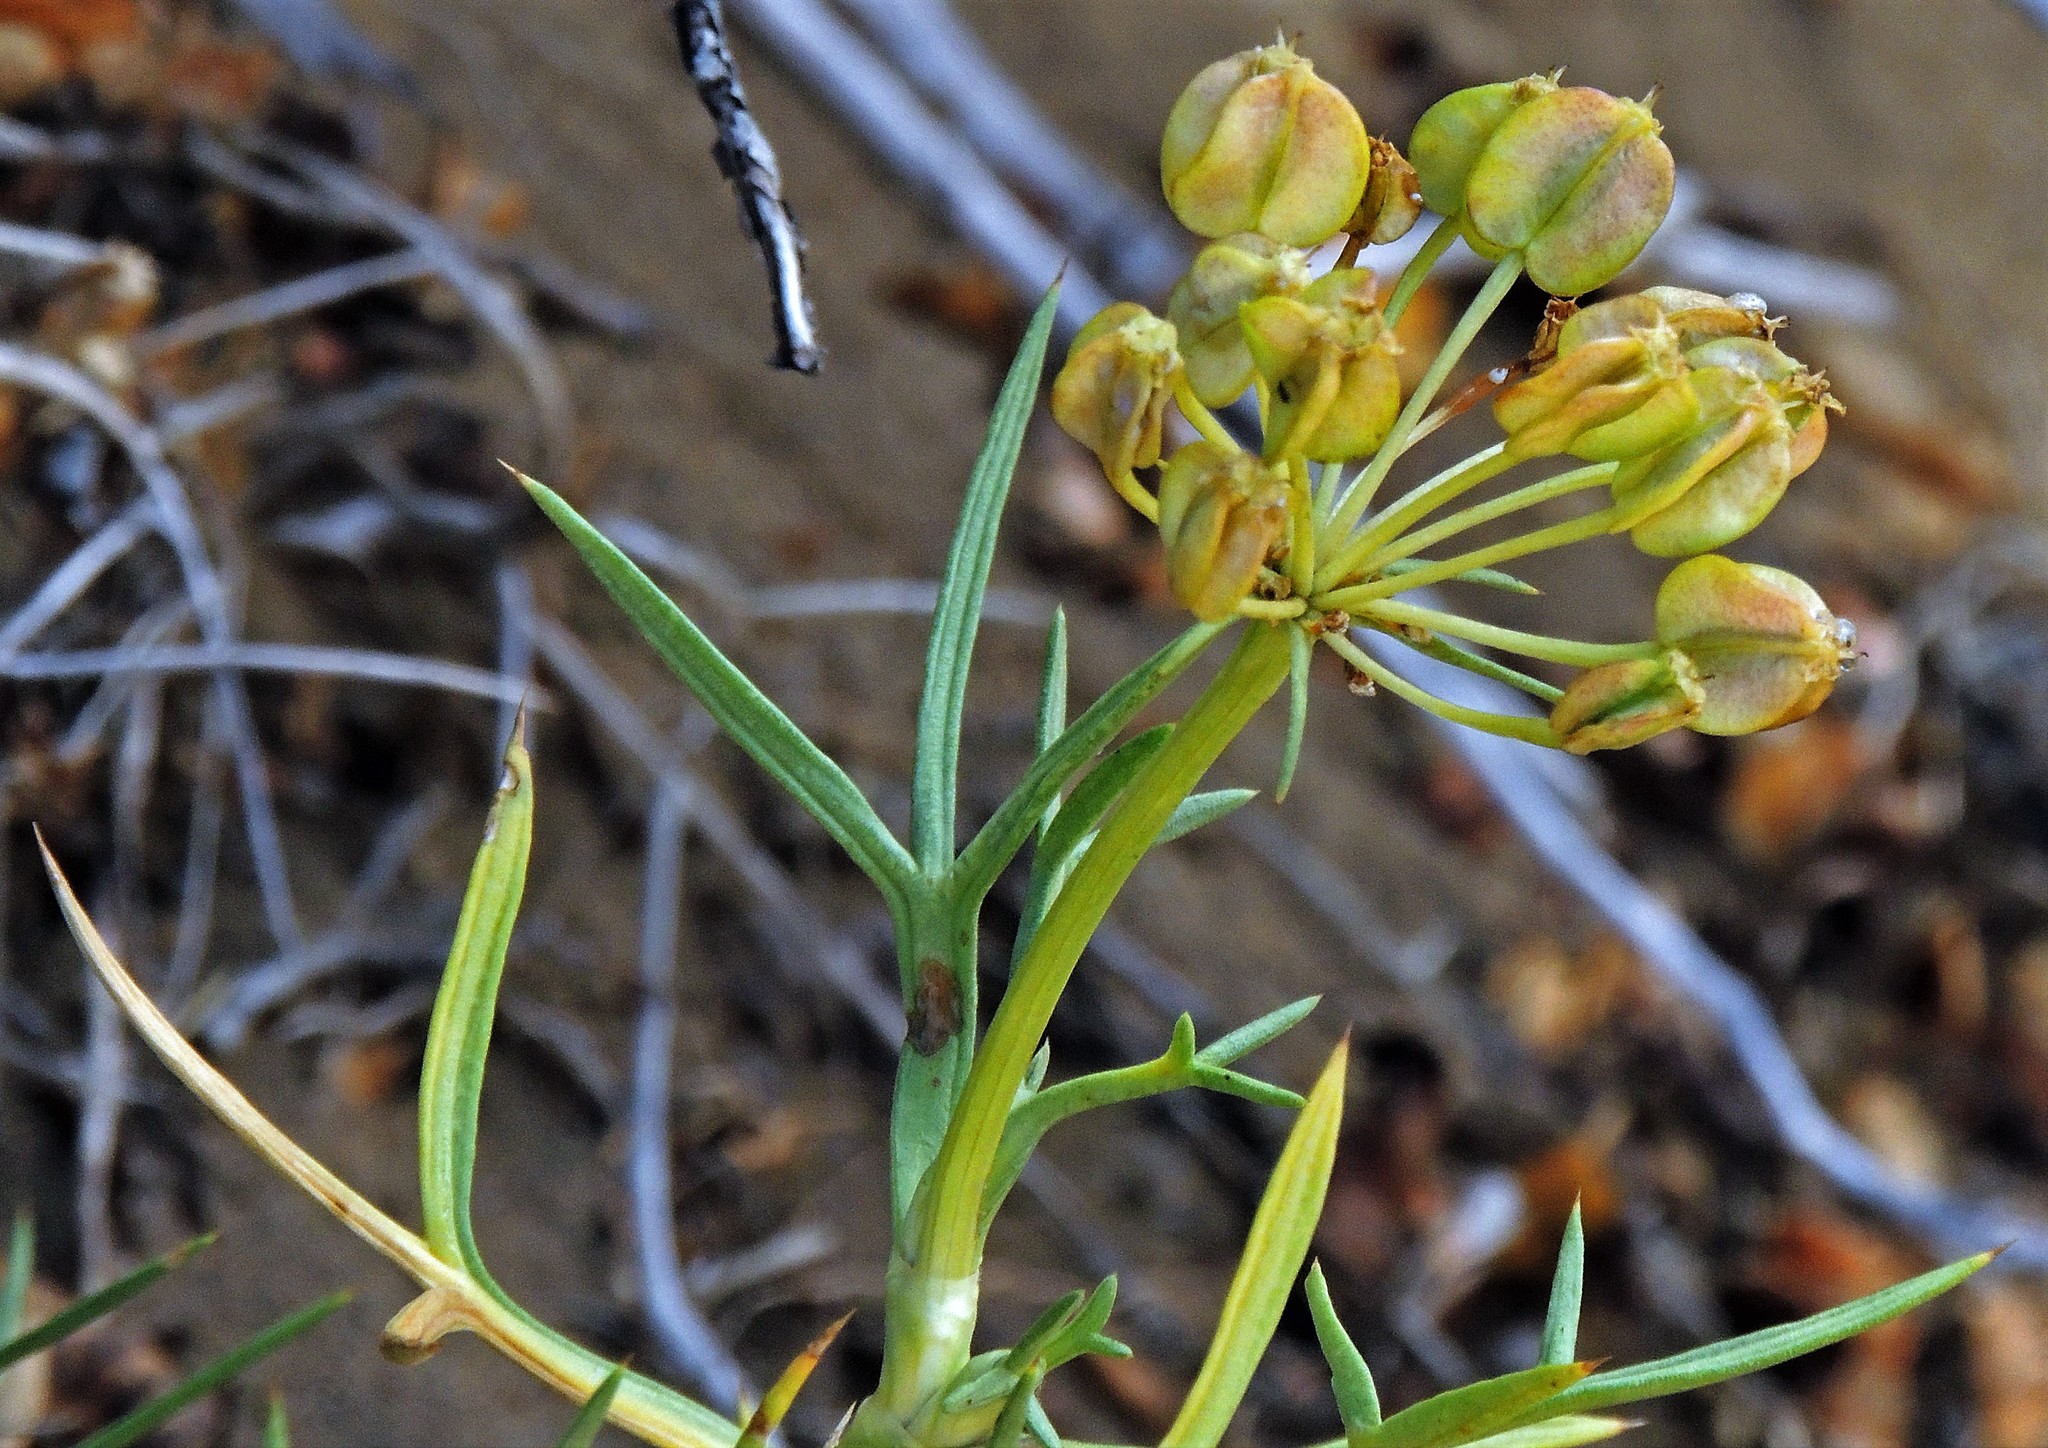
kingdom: Plantae
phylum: Tracheophyta
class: Magnoliopsida
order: Apiales
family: Apiaceae
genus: Azorella
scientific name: Azorella prolifera
